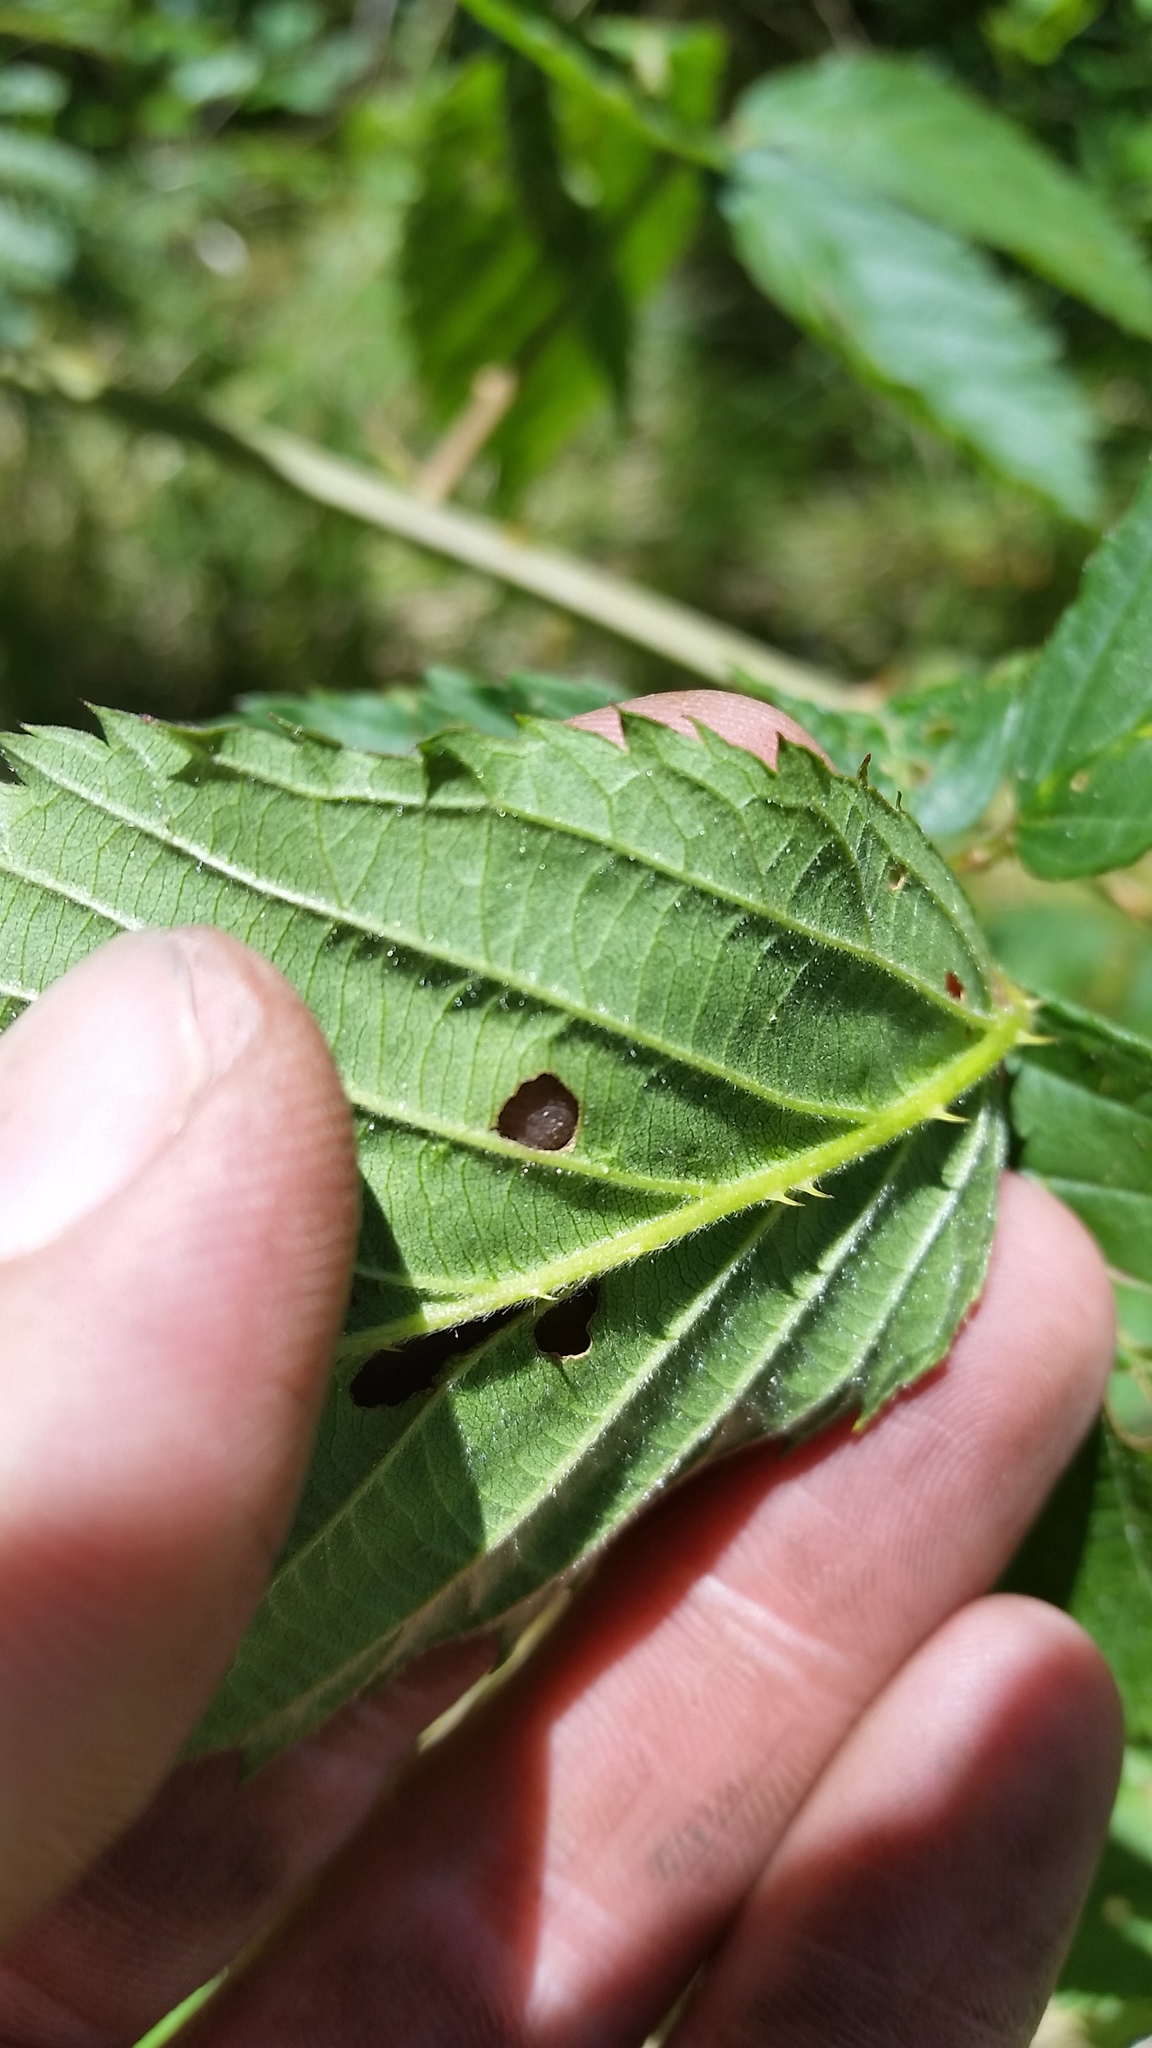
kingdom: Plantae
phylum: Tracheophyta
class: Magnoliopsida
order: Rosales
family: Rosaceae
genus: Rubus
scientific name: Rubus argutus
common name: Sawtooth blackberry
